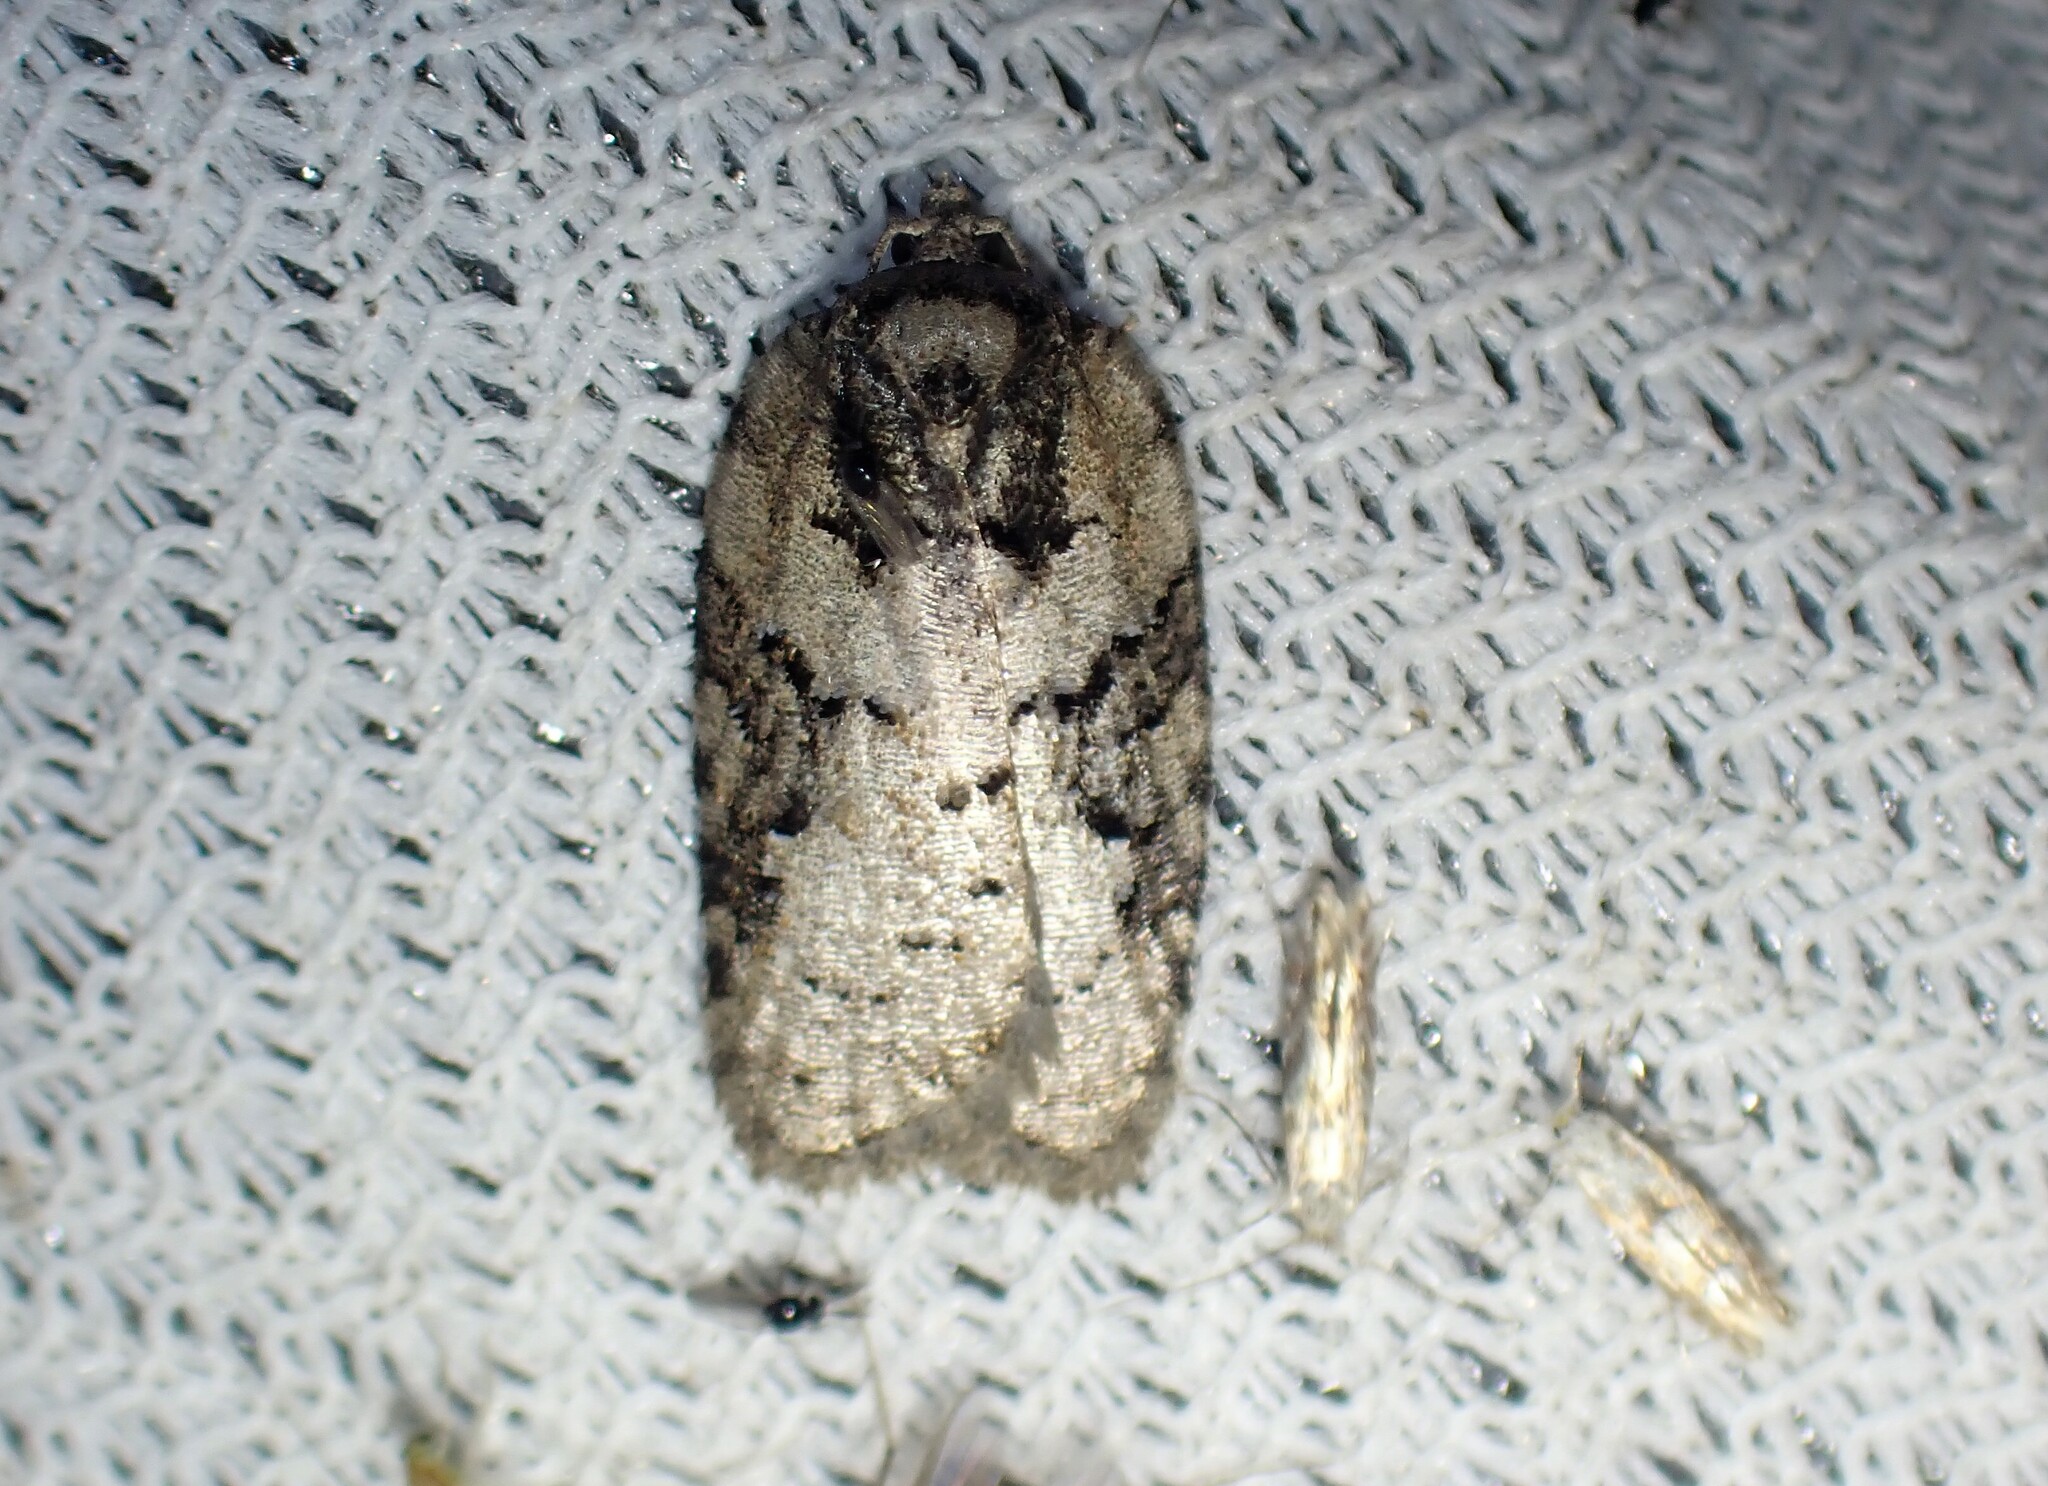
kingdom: Animalia
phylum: Arthropoda
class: Insecta
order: Lepidoptera
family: Tortricidae
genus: Acleris
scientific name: Acleris chalybeana
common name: Lesser maple leafroller
